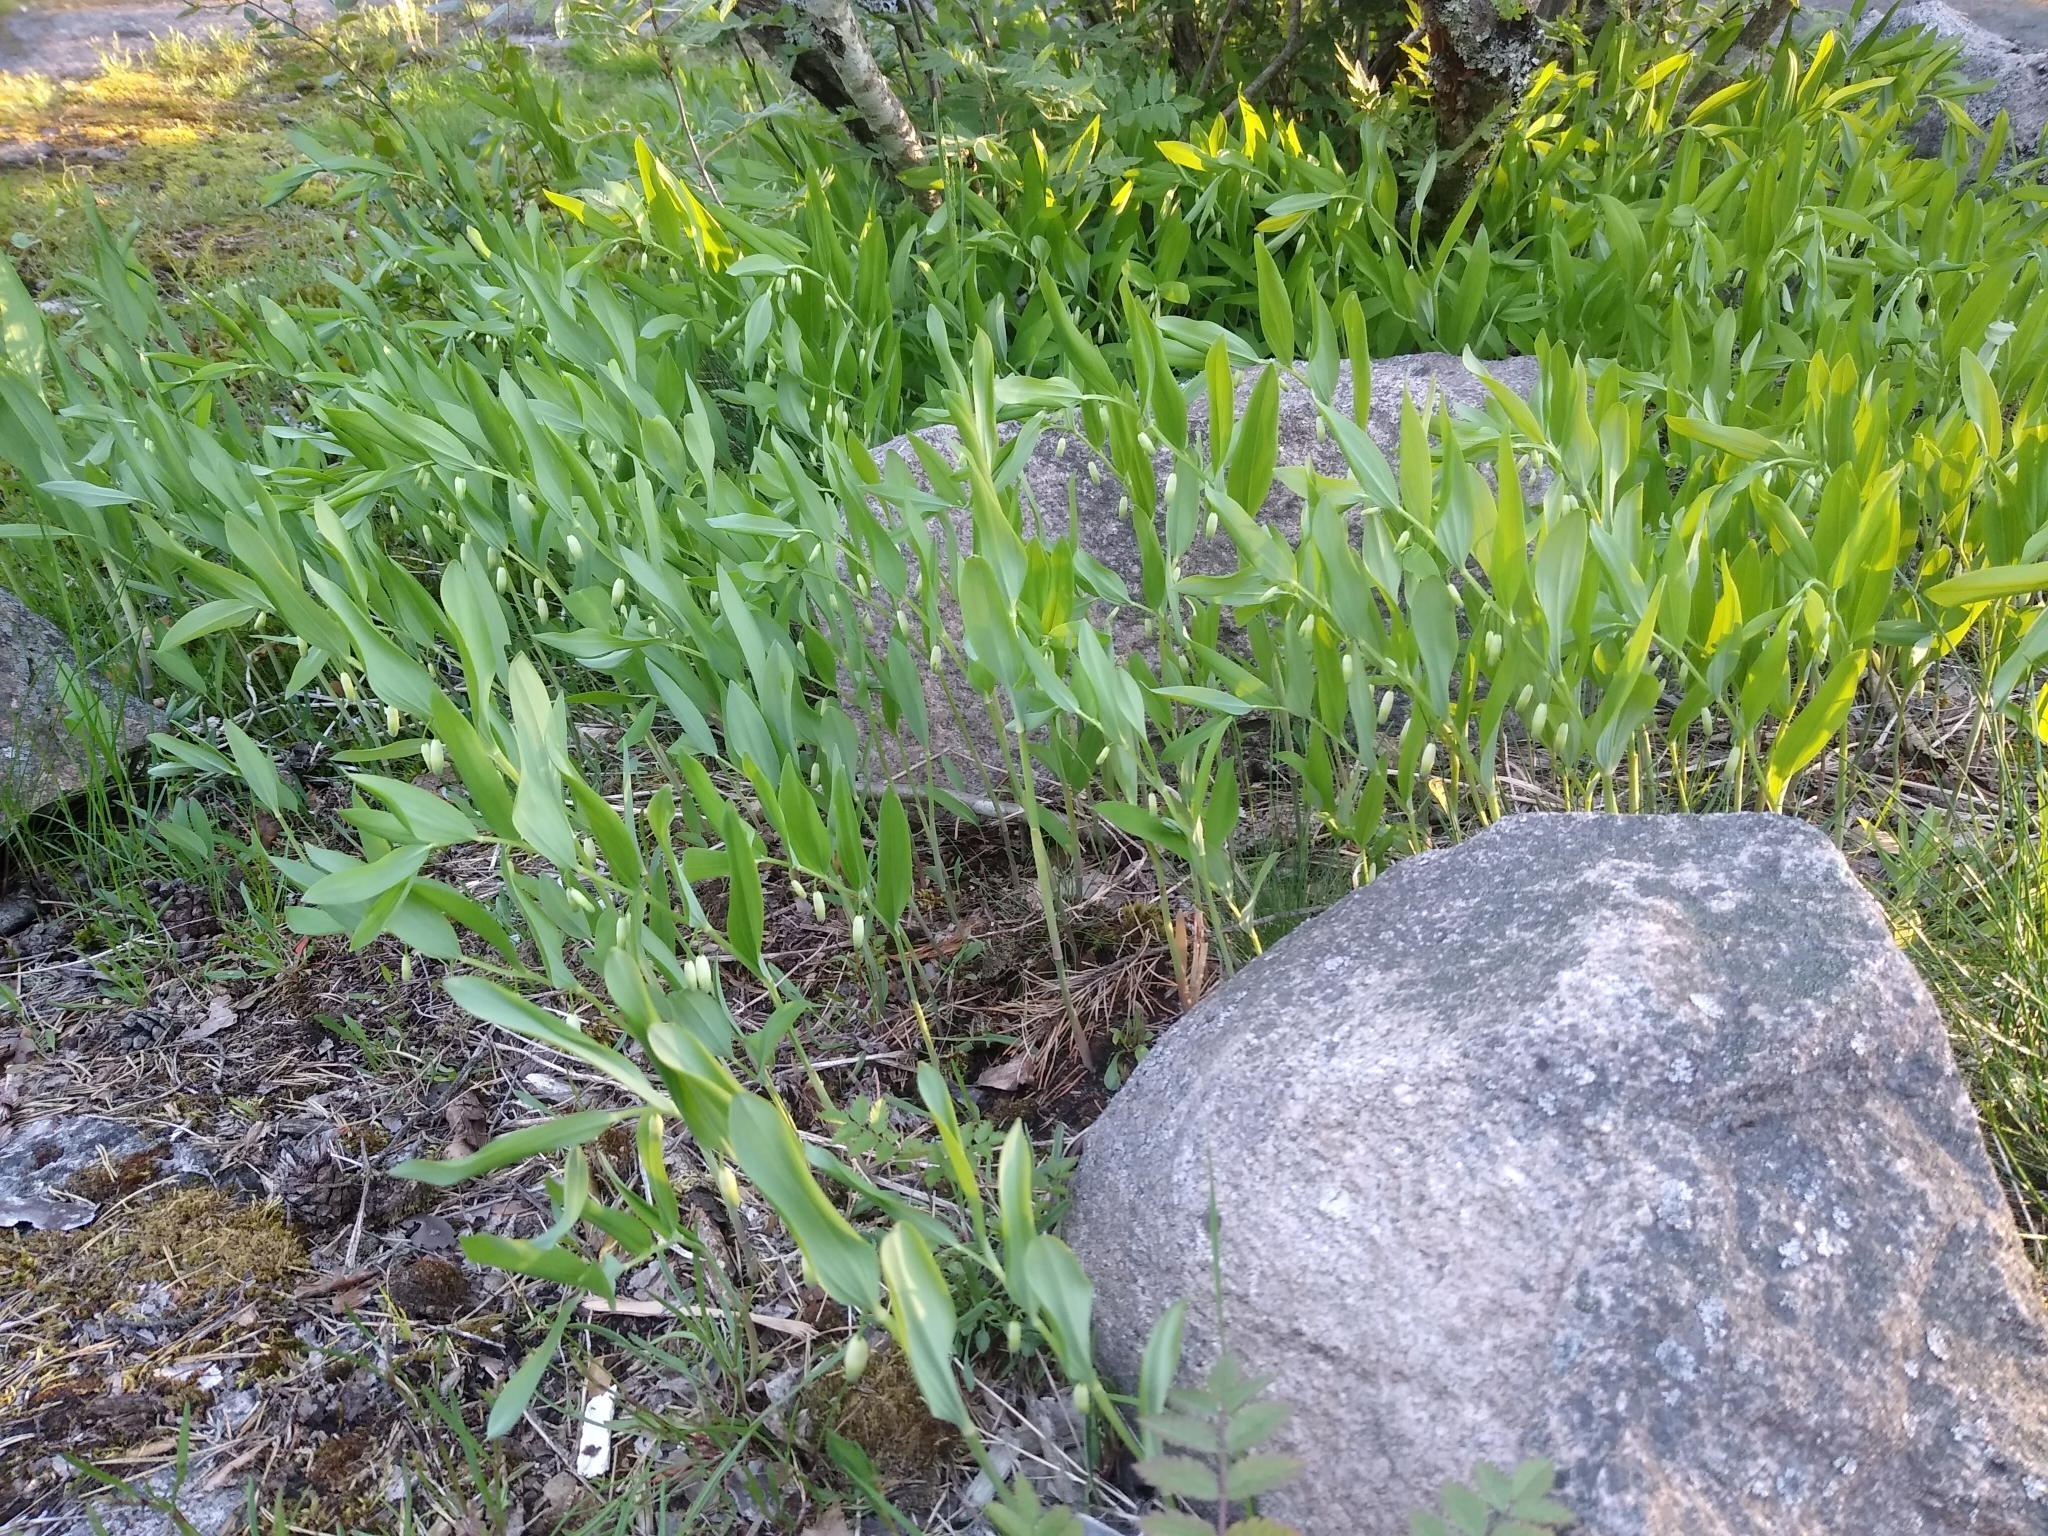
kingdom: Plantae
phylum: Tracheophyta
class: Liliopsida
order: Asparagales
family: Asparagaceae
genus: Polygonatum
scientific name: Polygonatum odoratum
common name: Angular solomon's-seal
